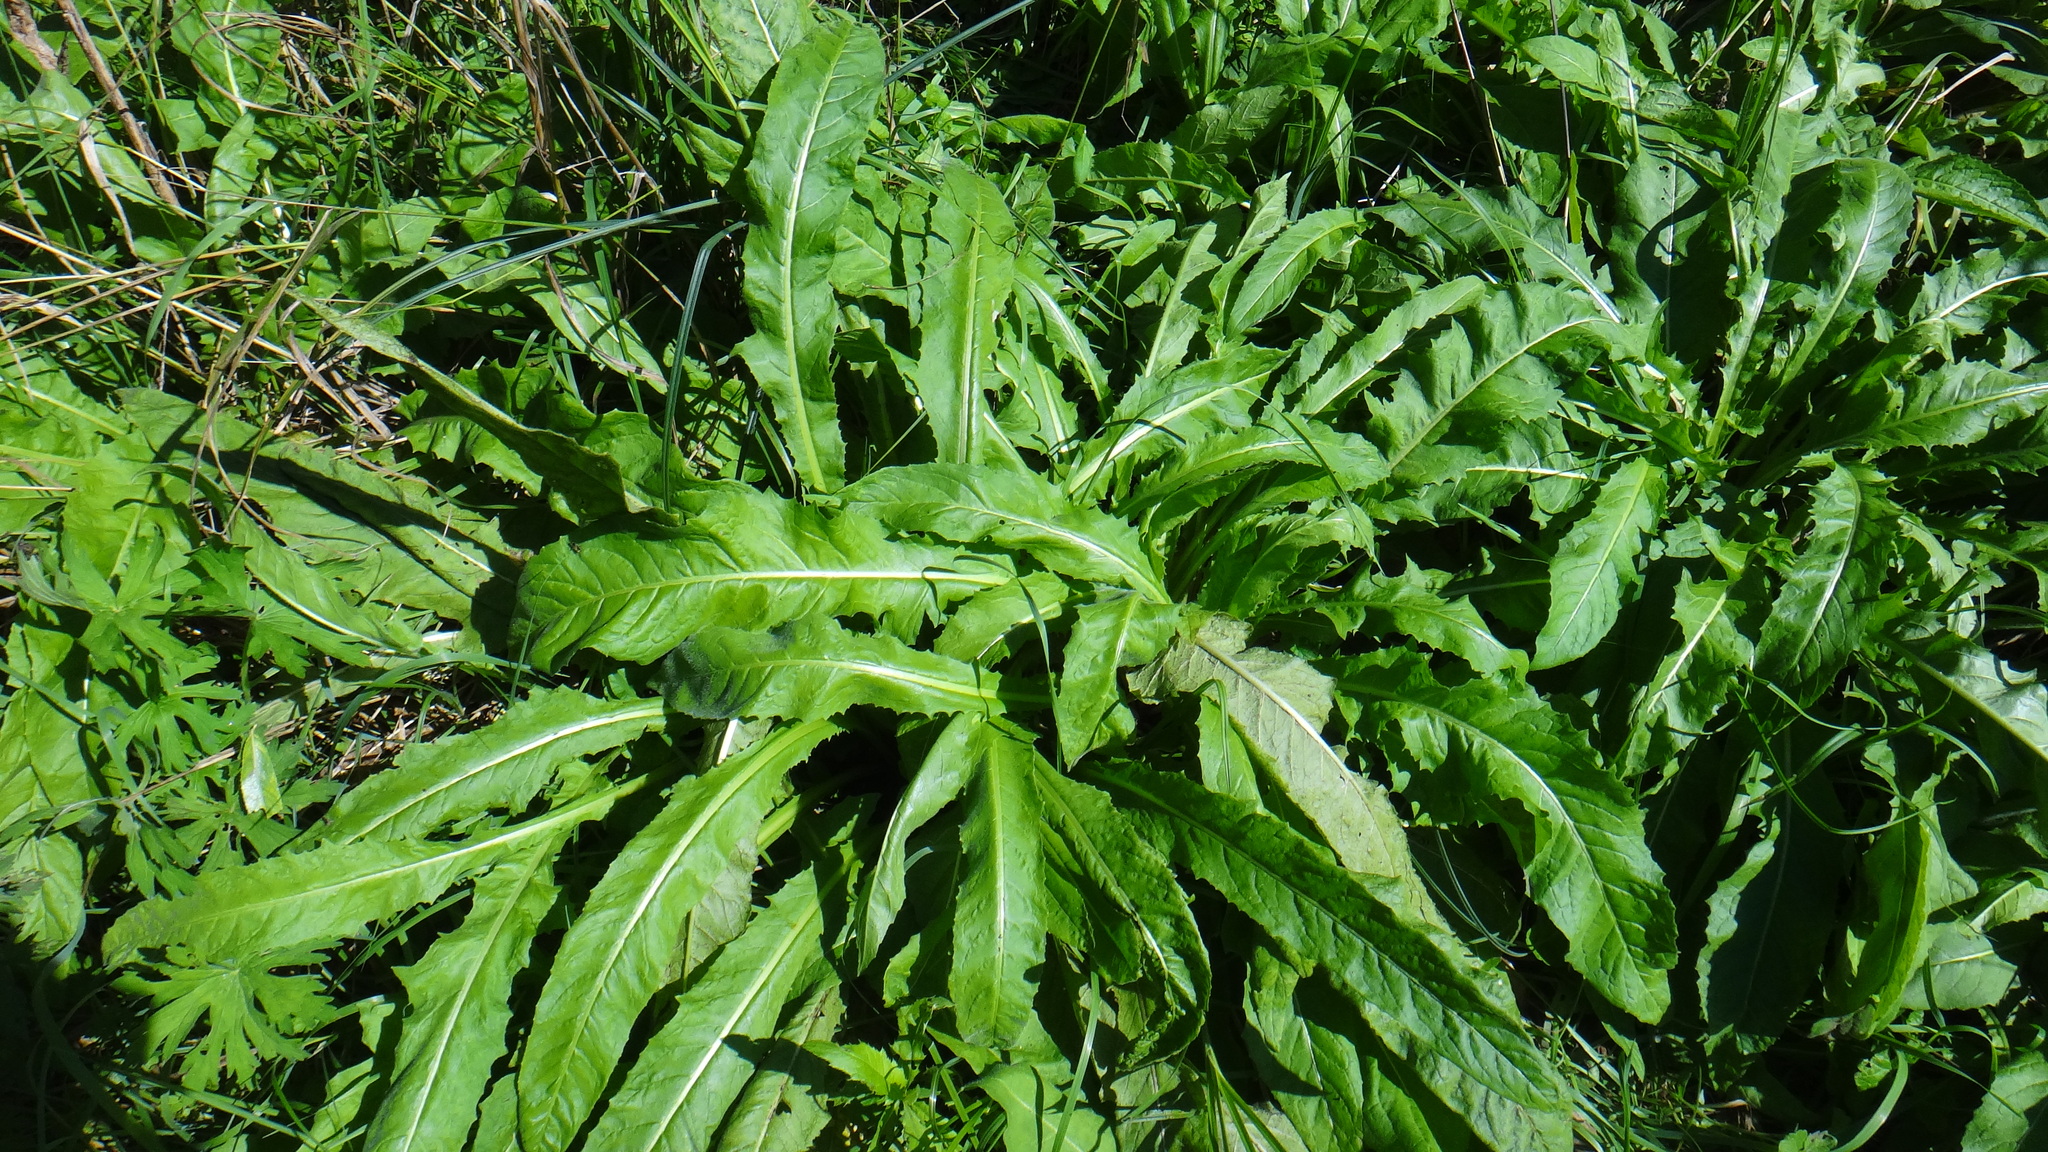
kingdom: Plantae
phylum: Tracheophyta
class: Magnoliopsida
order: Brassicales
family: Brassicaceae
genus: Bunias
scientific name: Bunias orientalis
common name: Warty-cabbage
